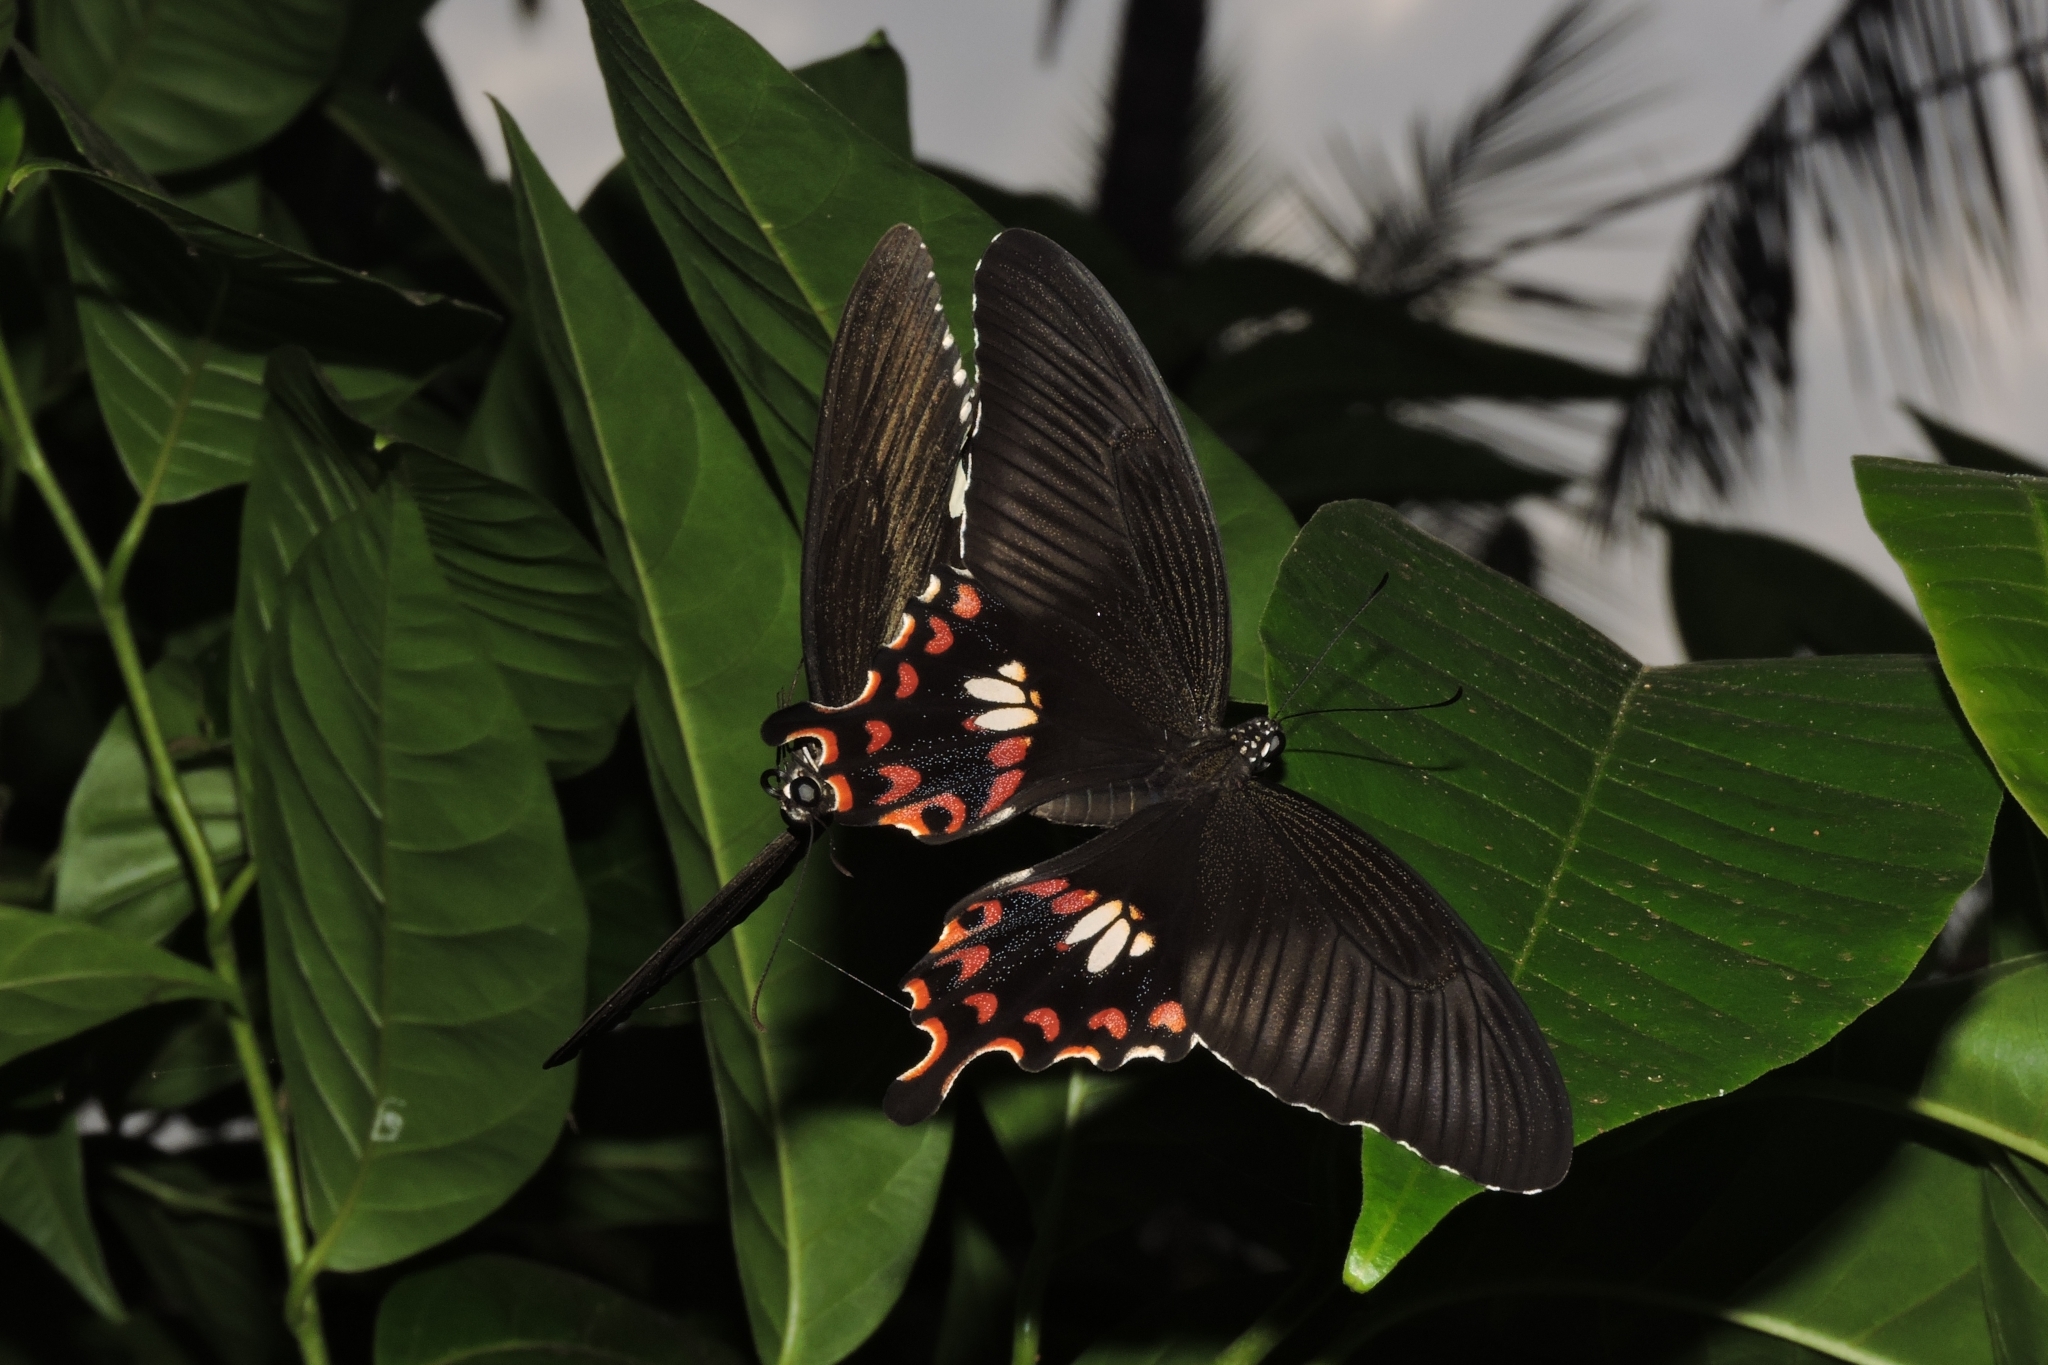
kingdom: Animalia
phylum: Arthropoda
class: Insecta
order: Lepidoptera
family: Papilionidae
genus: Papilio
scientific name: Papilio polytes
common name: Common mormon
